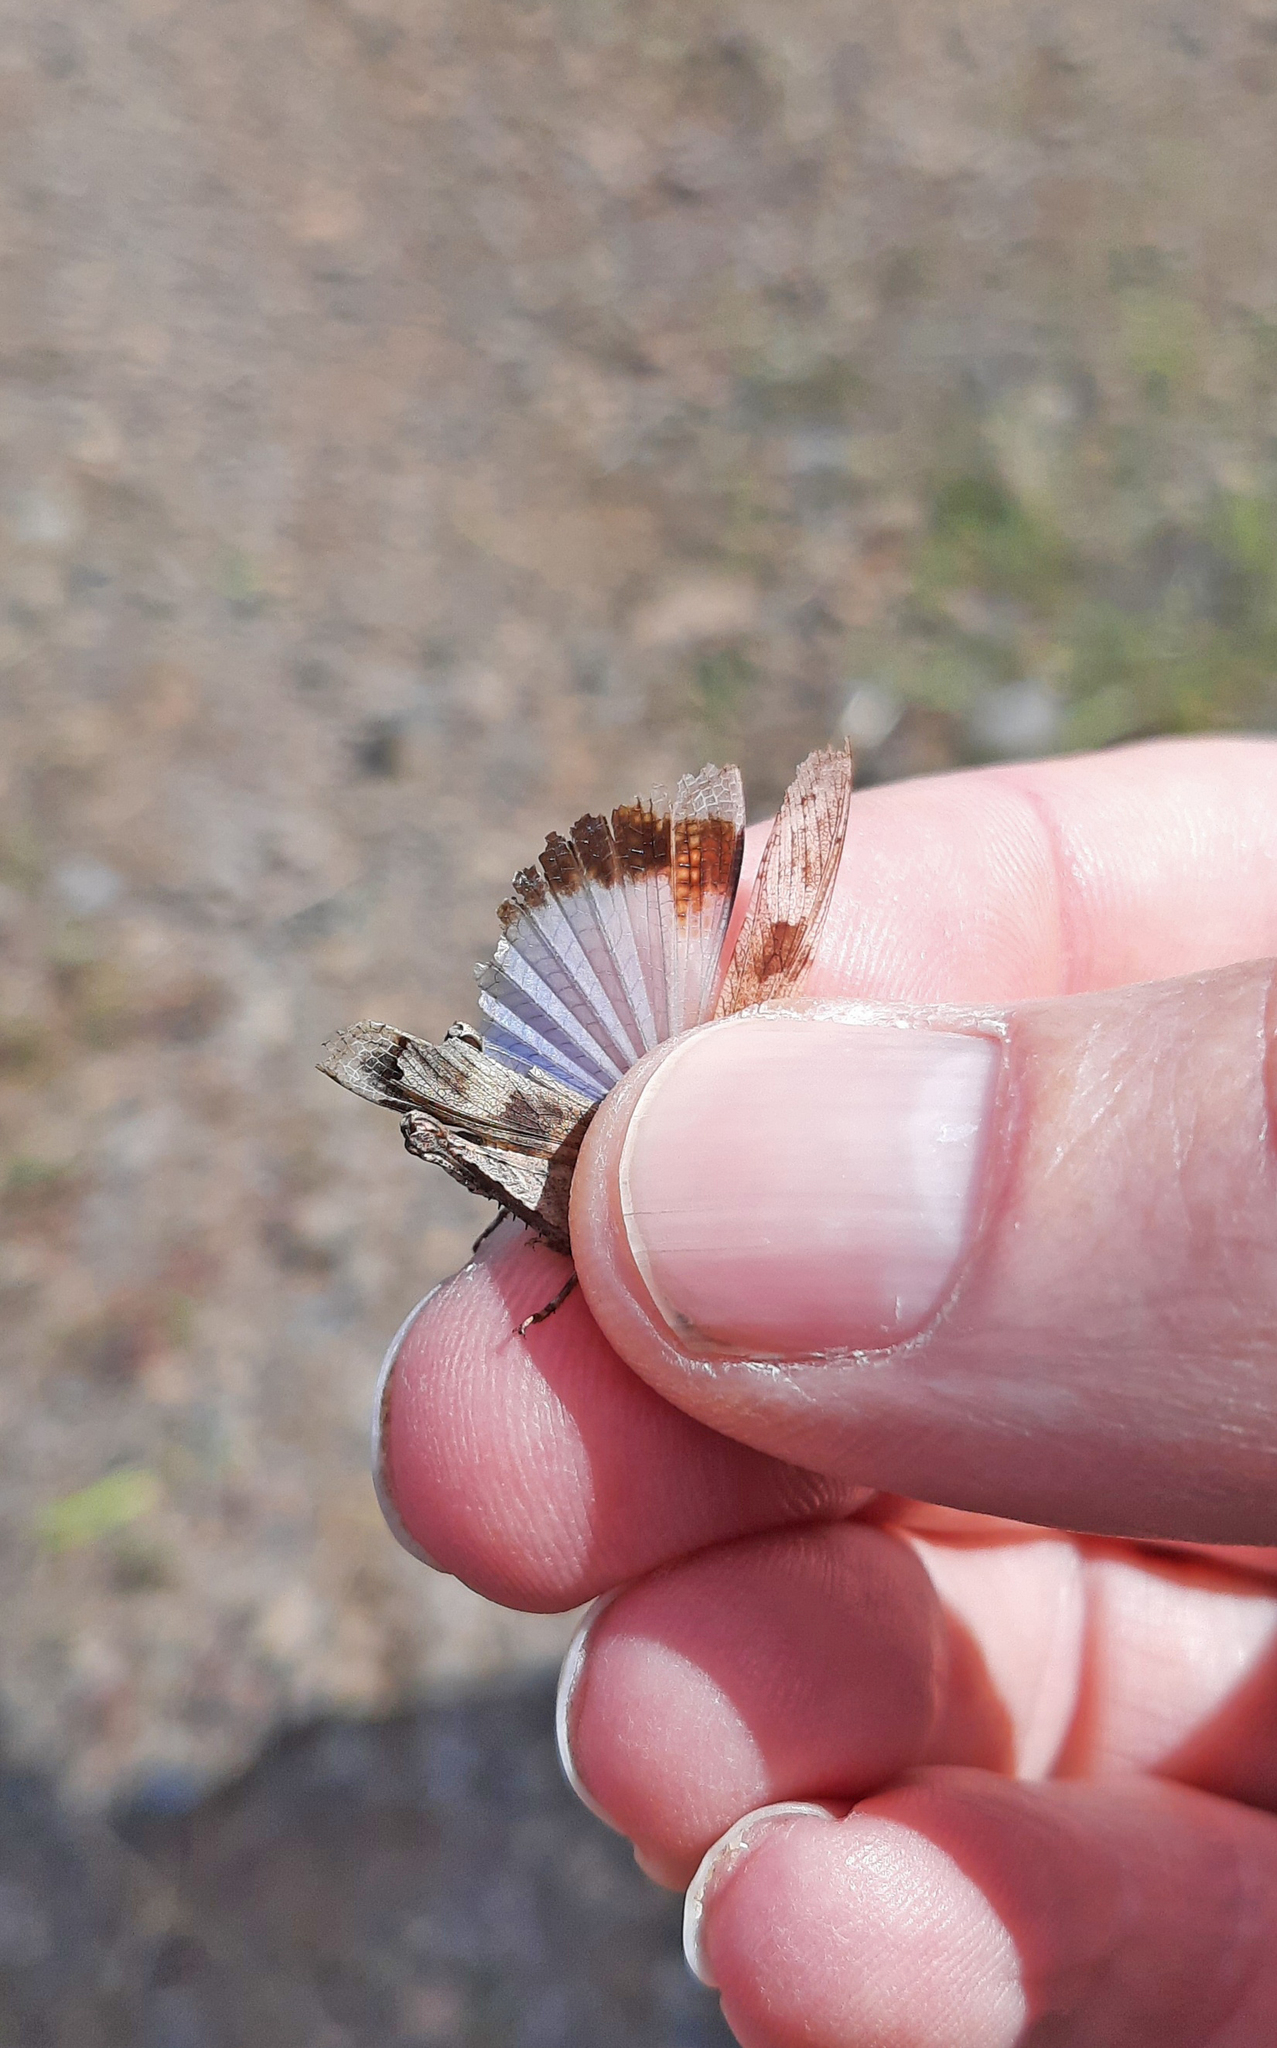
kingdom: Animalia
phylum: Arthropoda
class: Insecta
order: Orthoptera
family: Acrididae
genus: Oedipoda
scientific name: Oedipoda canariensis
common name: Canarian band-winged grasshopper
